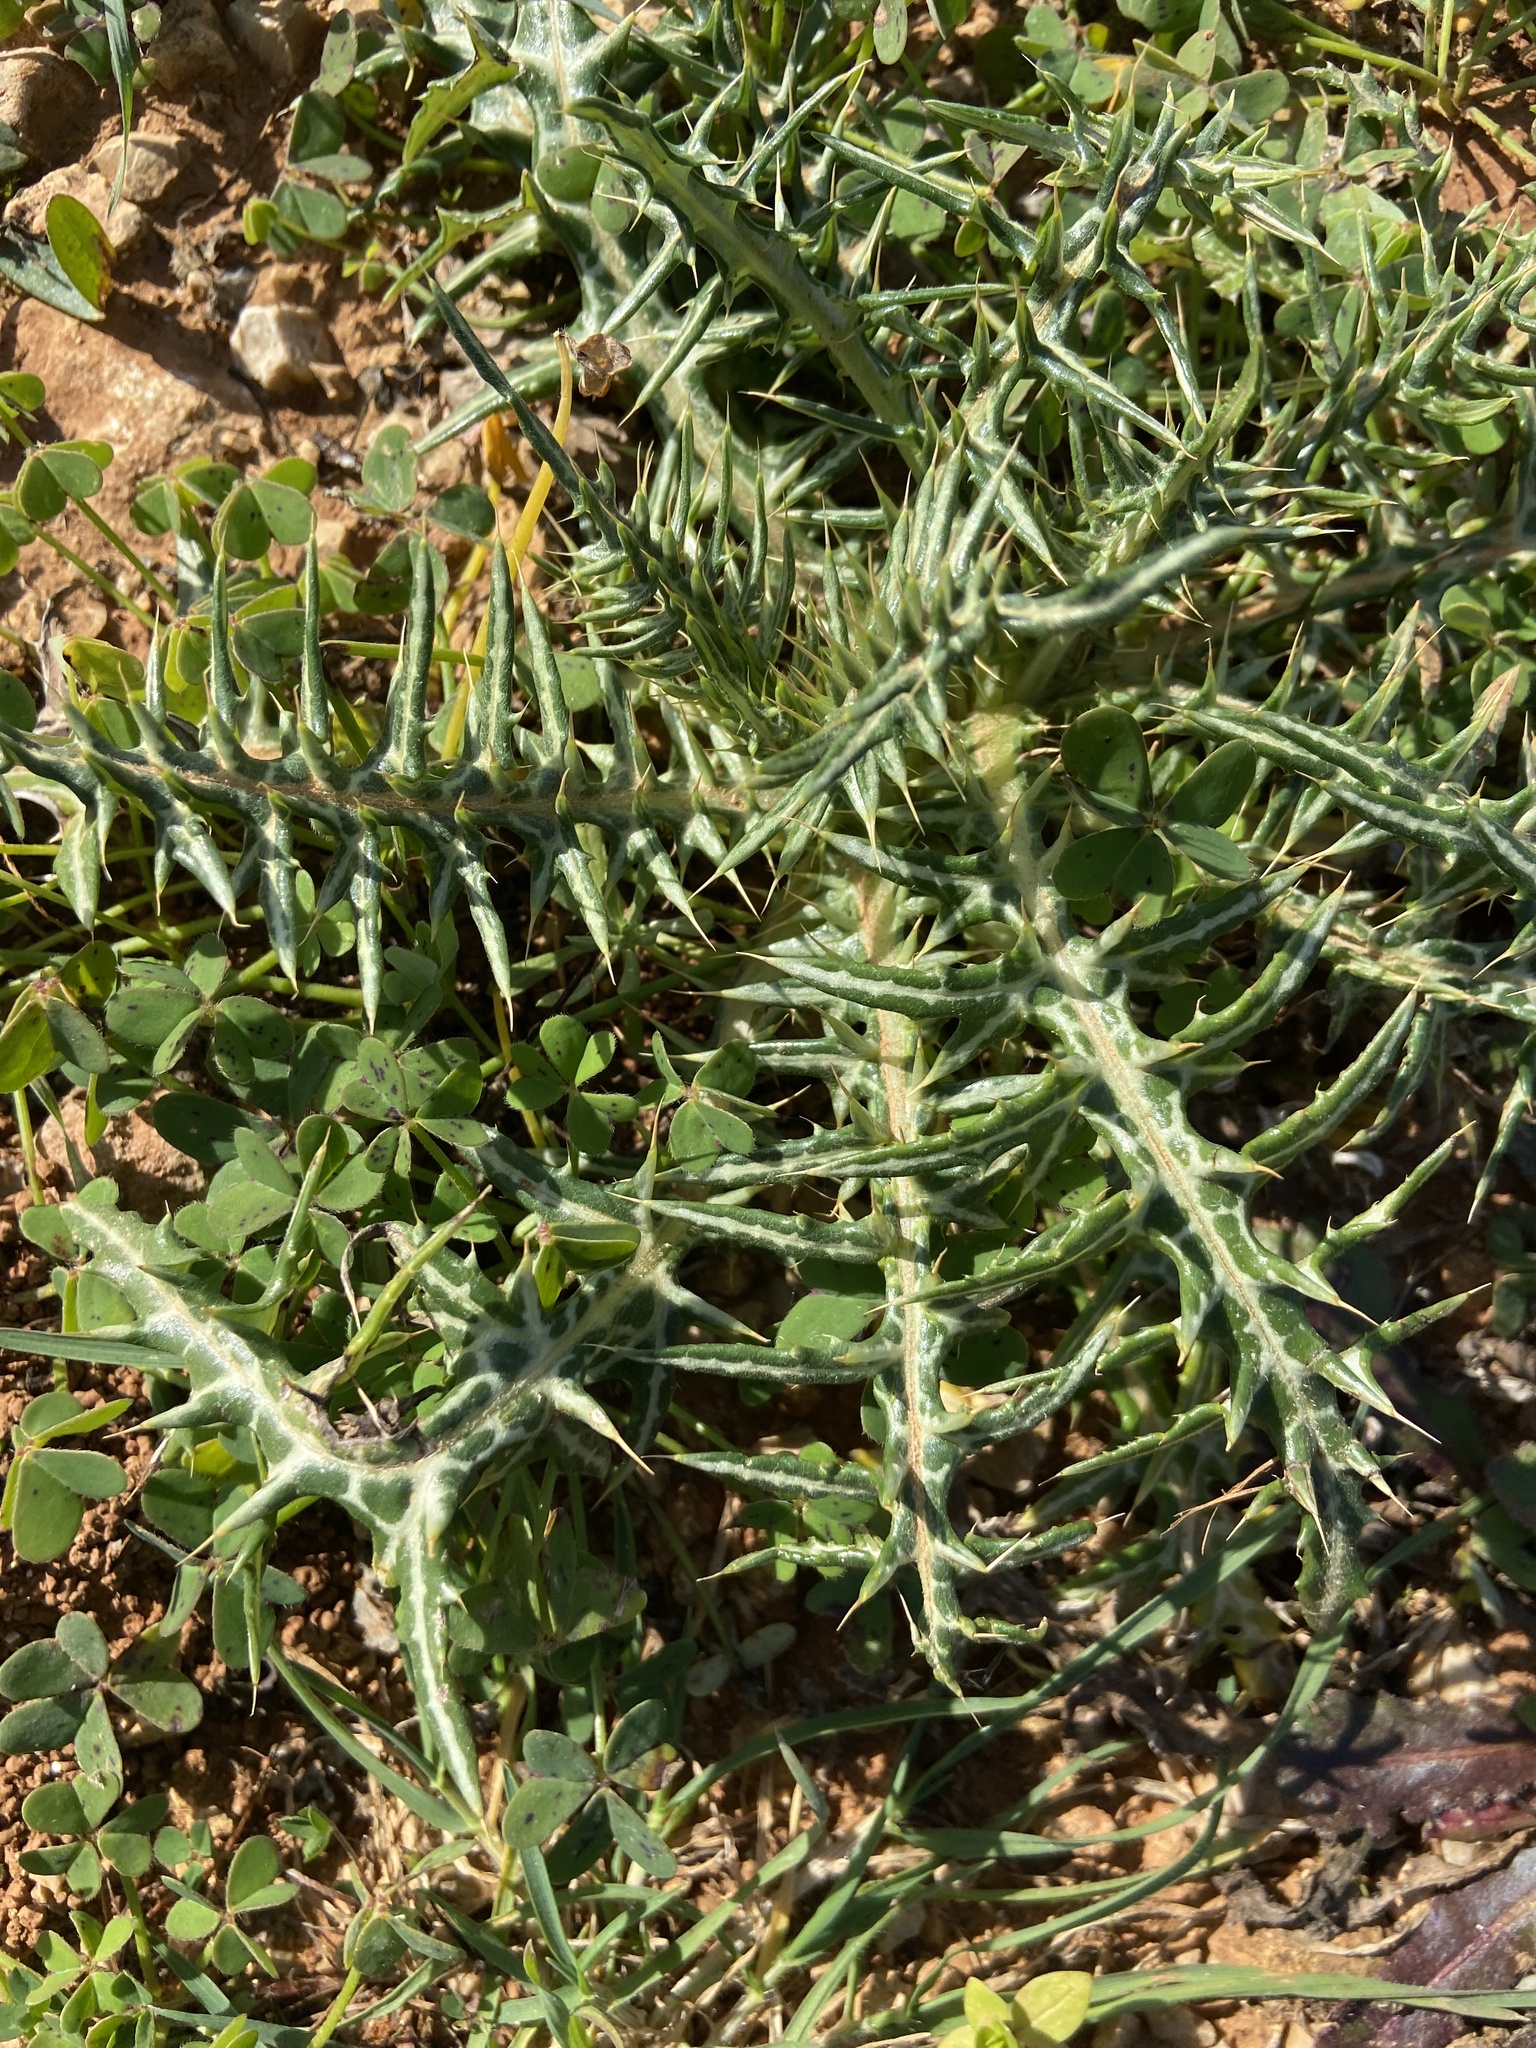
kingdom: Plantae
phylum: Tracheophyta
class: Magnoliopsida
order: Asterales
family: Asteraceae
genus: Galactites
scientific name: Galactites tomentosa
